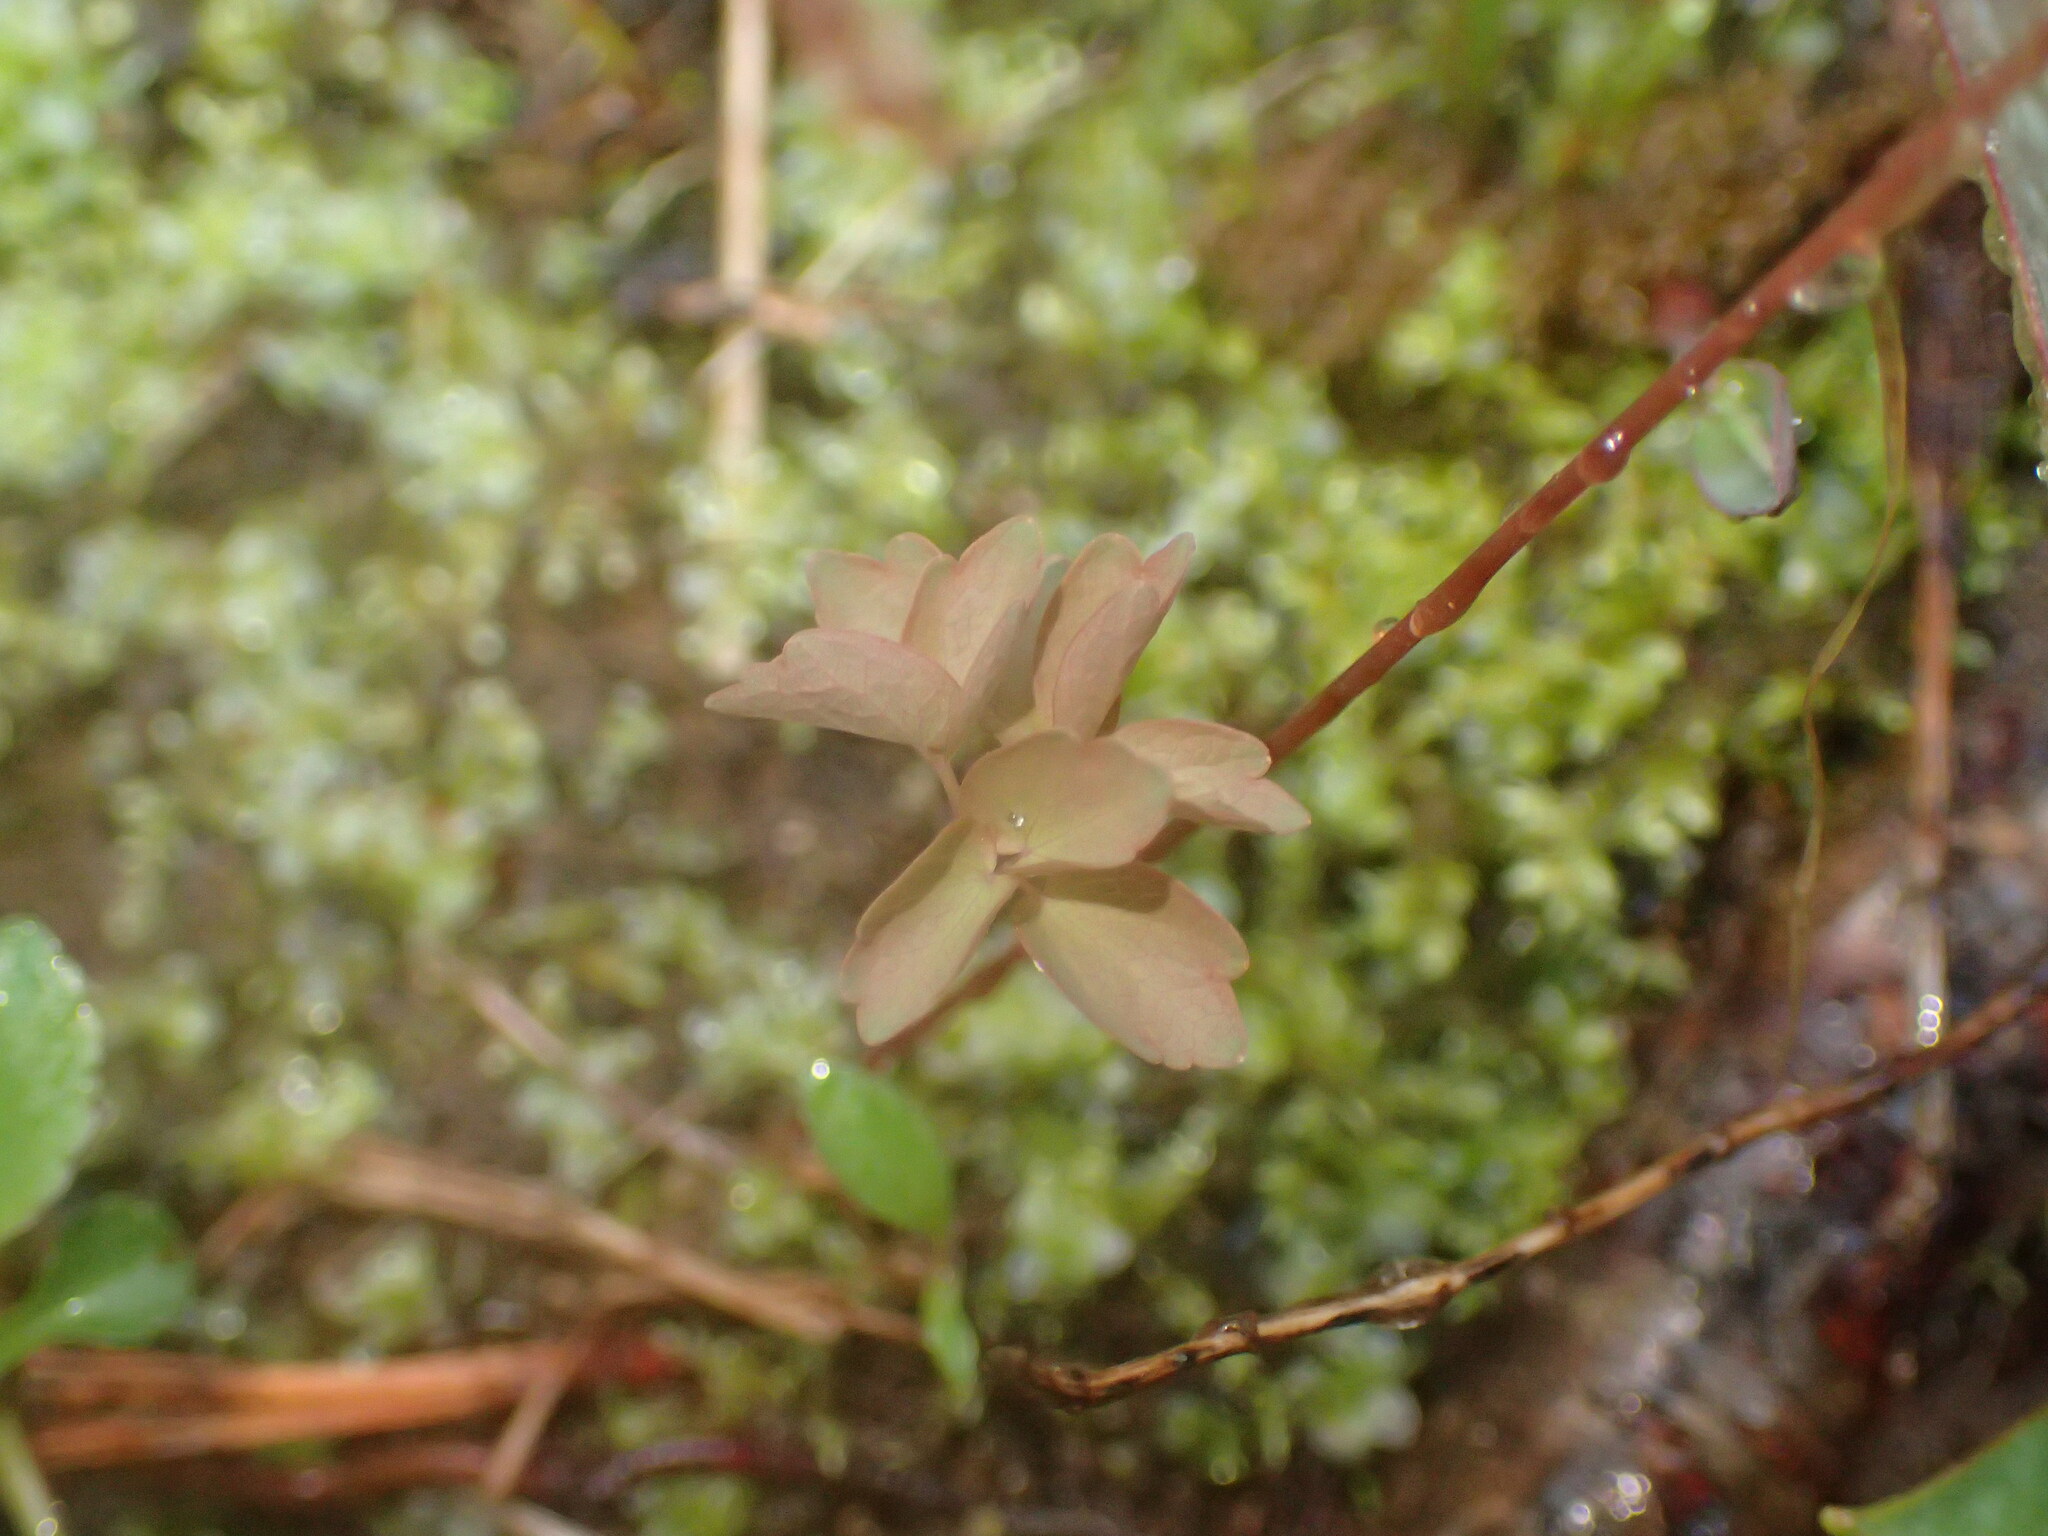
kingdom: Plantae
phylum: Tracheophyta
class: Magnoliopsida
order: Ranunculales
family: Ranunculaceae
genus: Thalictrum
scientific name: Thalictrum thalictroides
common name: Rue-anemone
